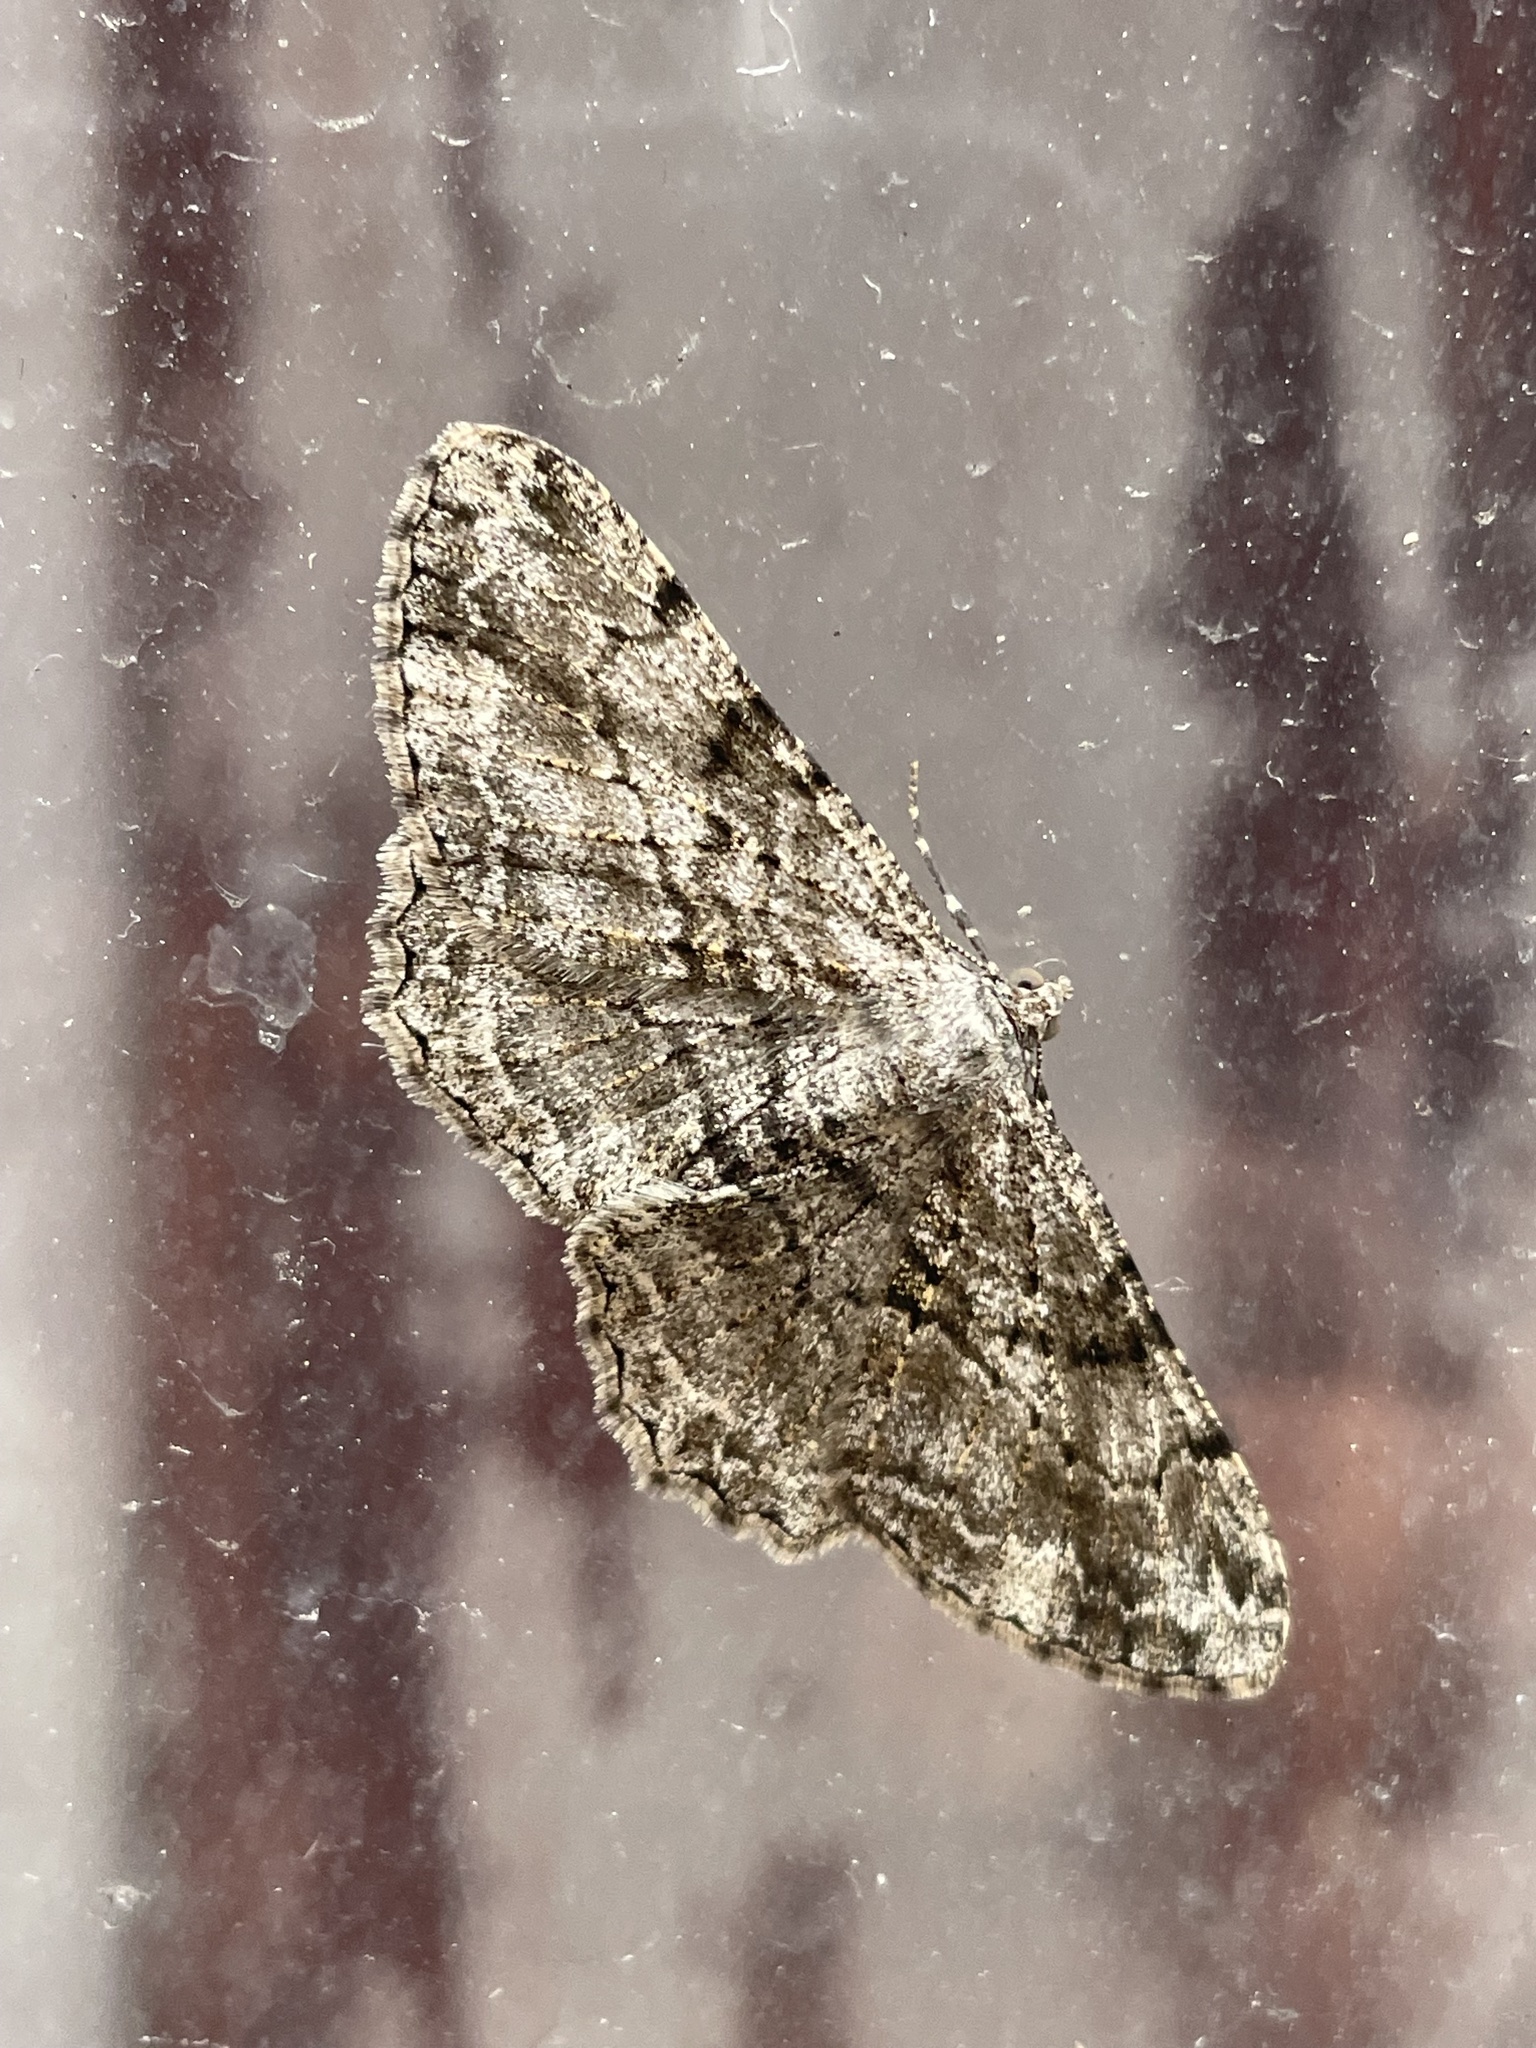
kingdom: Animalia
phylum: Arthropoda
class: Insecta
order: Lepidoptera
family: Geometridae
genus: Peribatodes
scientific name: Peribatodes rhomboidaria
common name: Willow beauty
